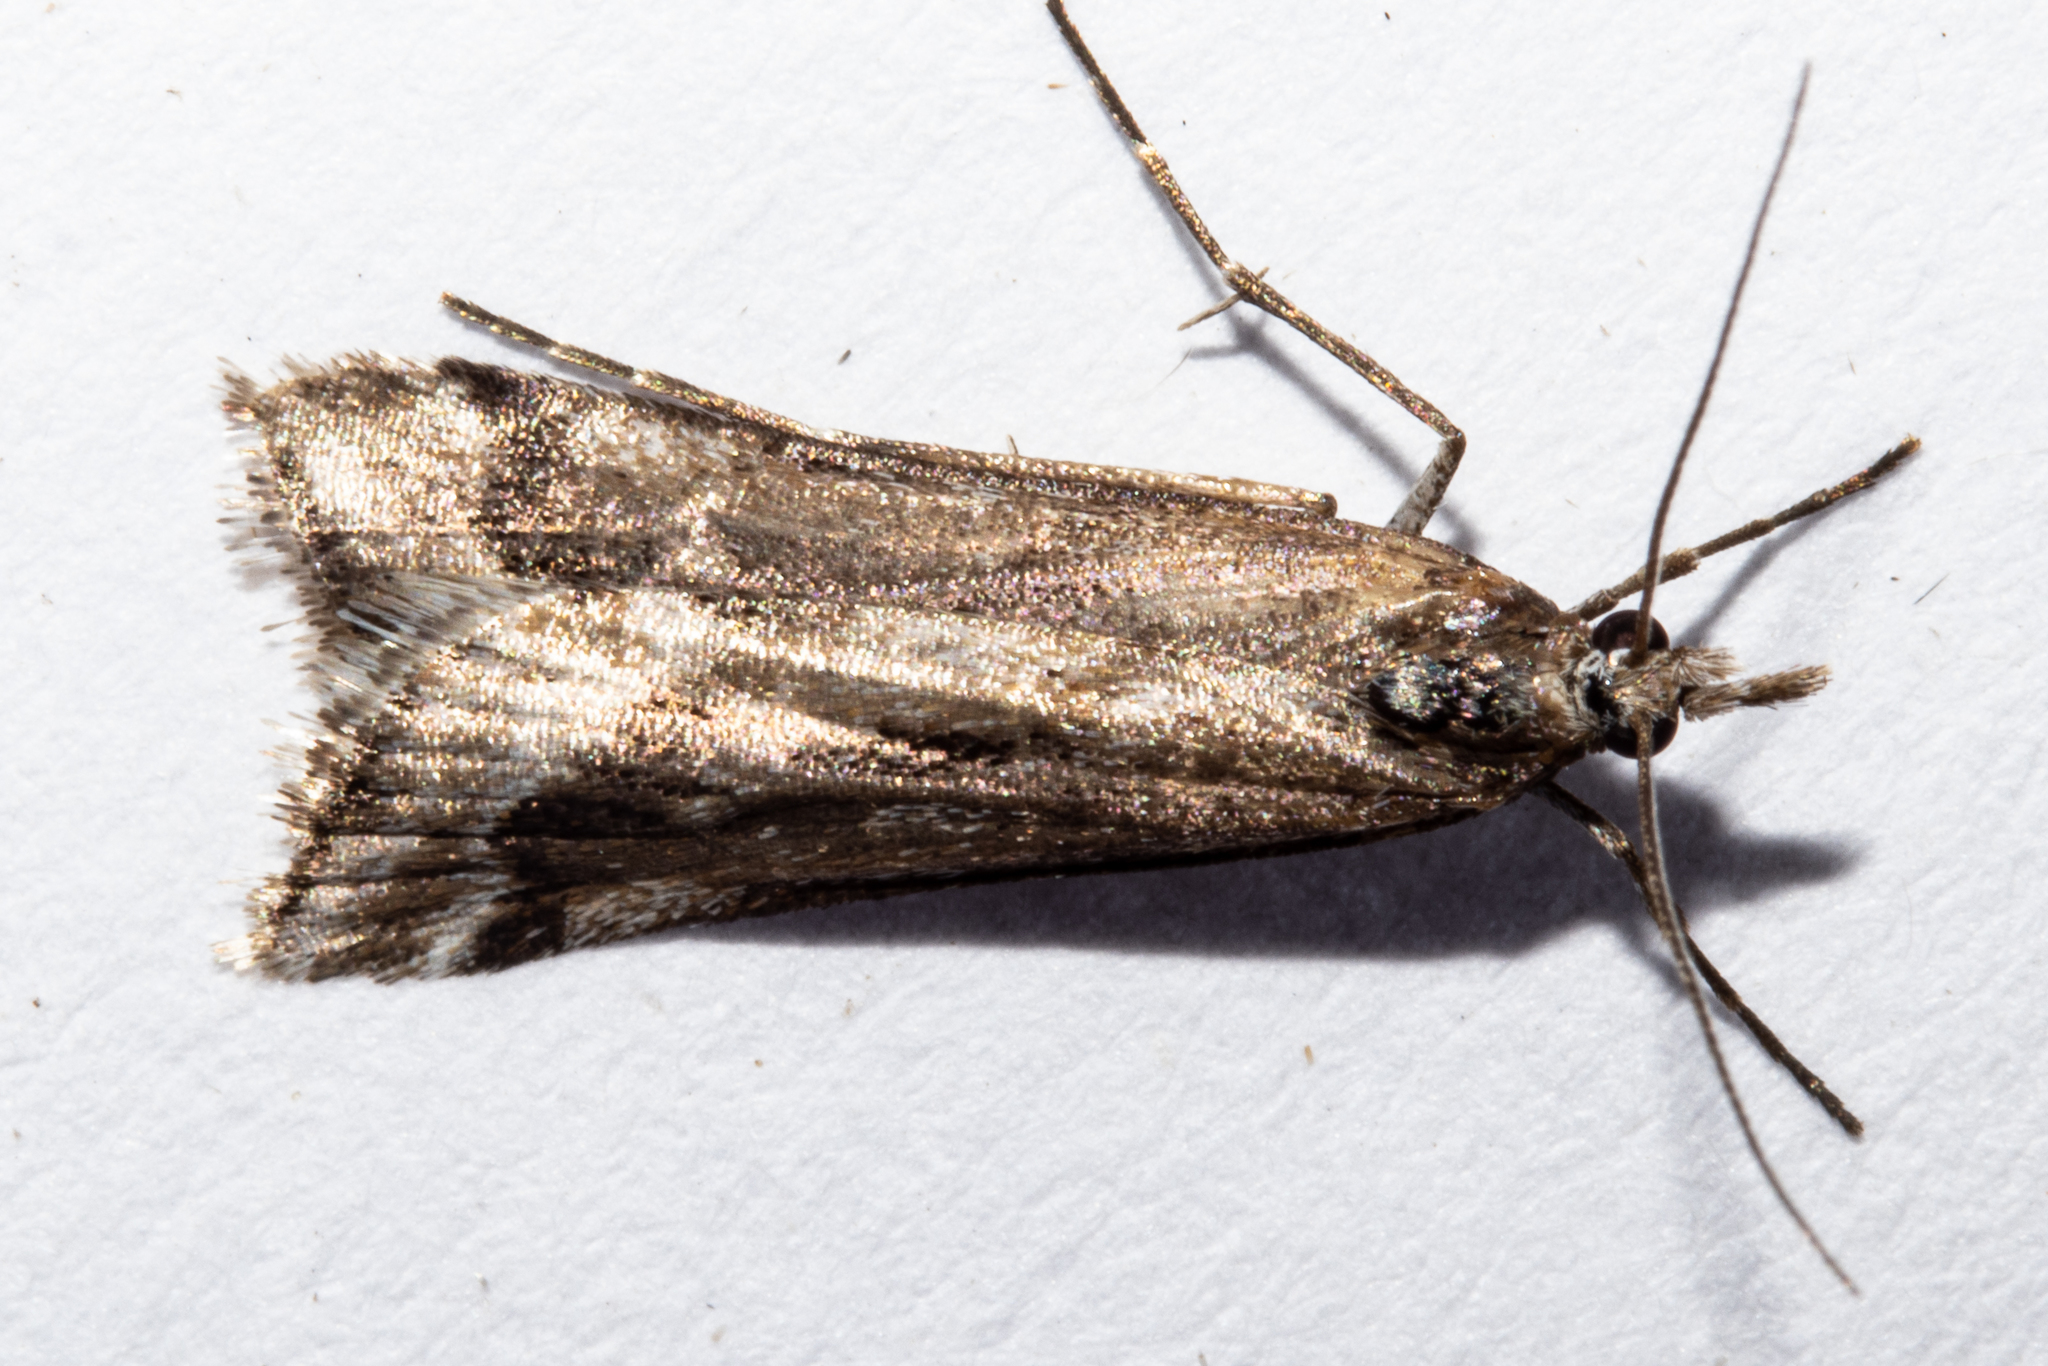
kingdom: Animalia
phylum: Arthropoda
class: Insecta
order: Lepidoptera
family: Crambidae
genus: Scoparia
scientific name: Scoparia exilis
